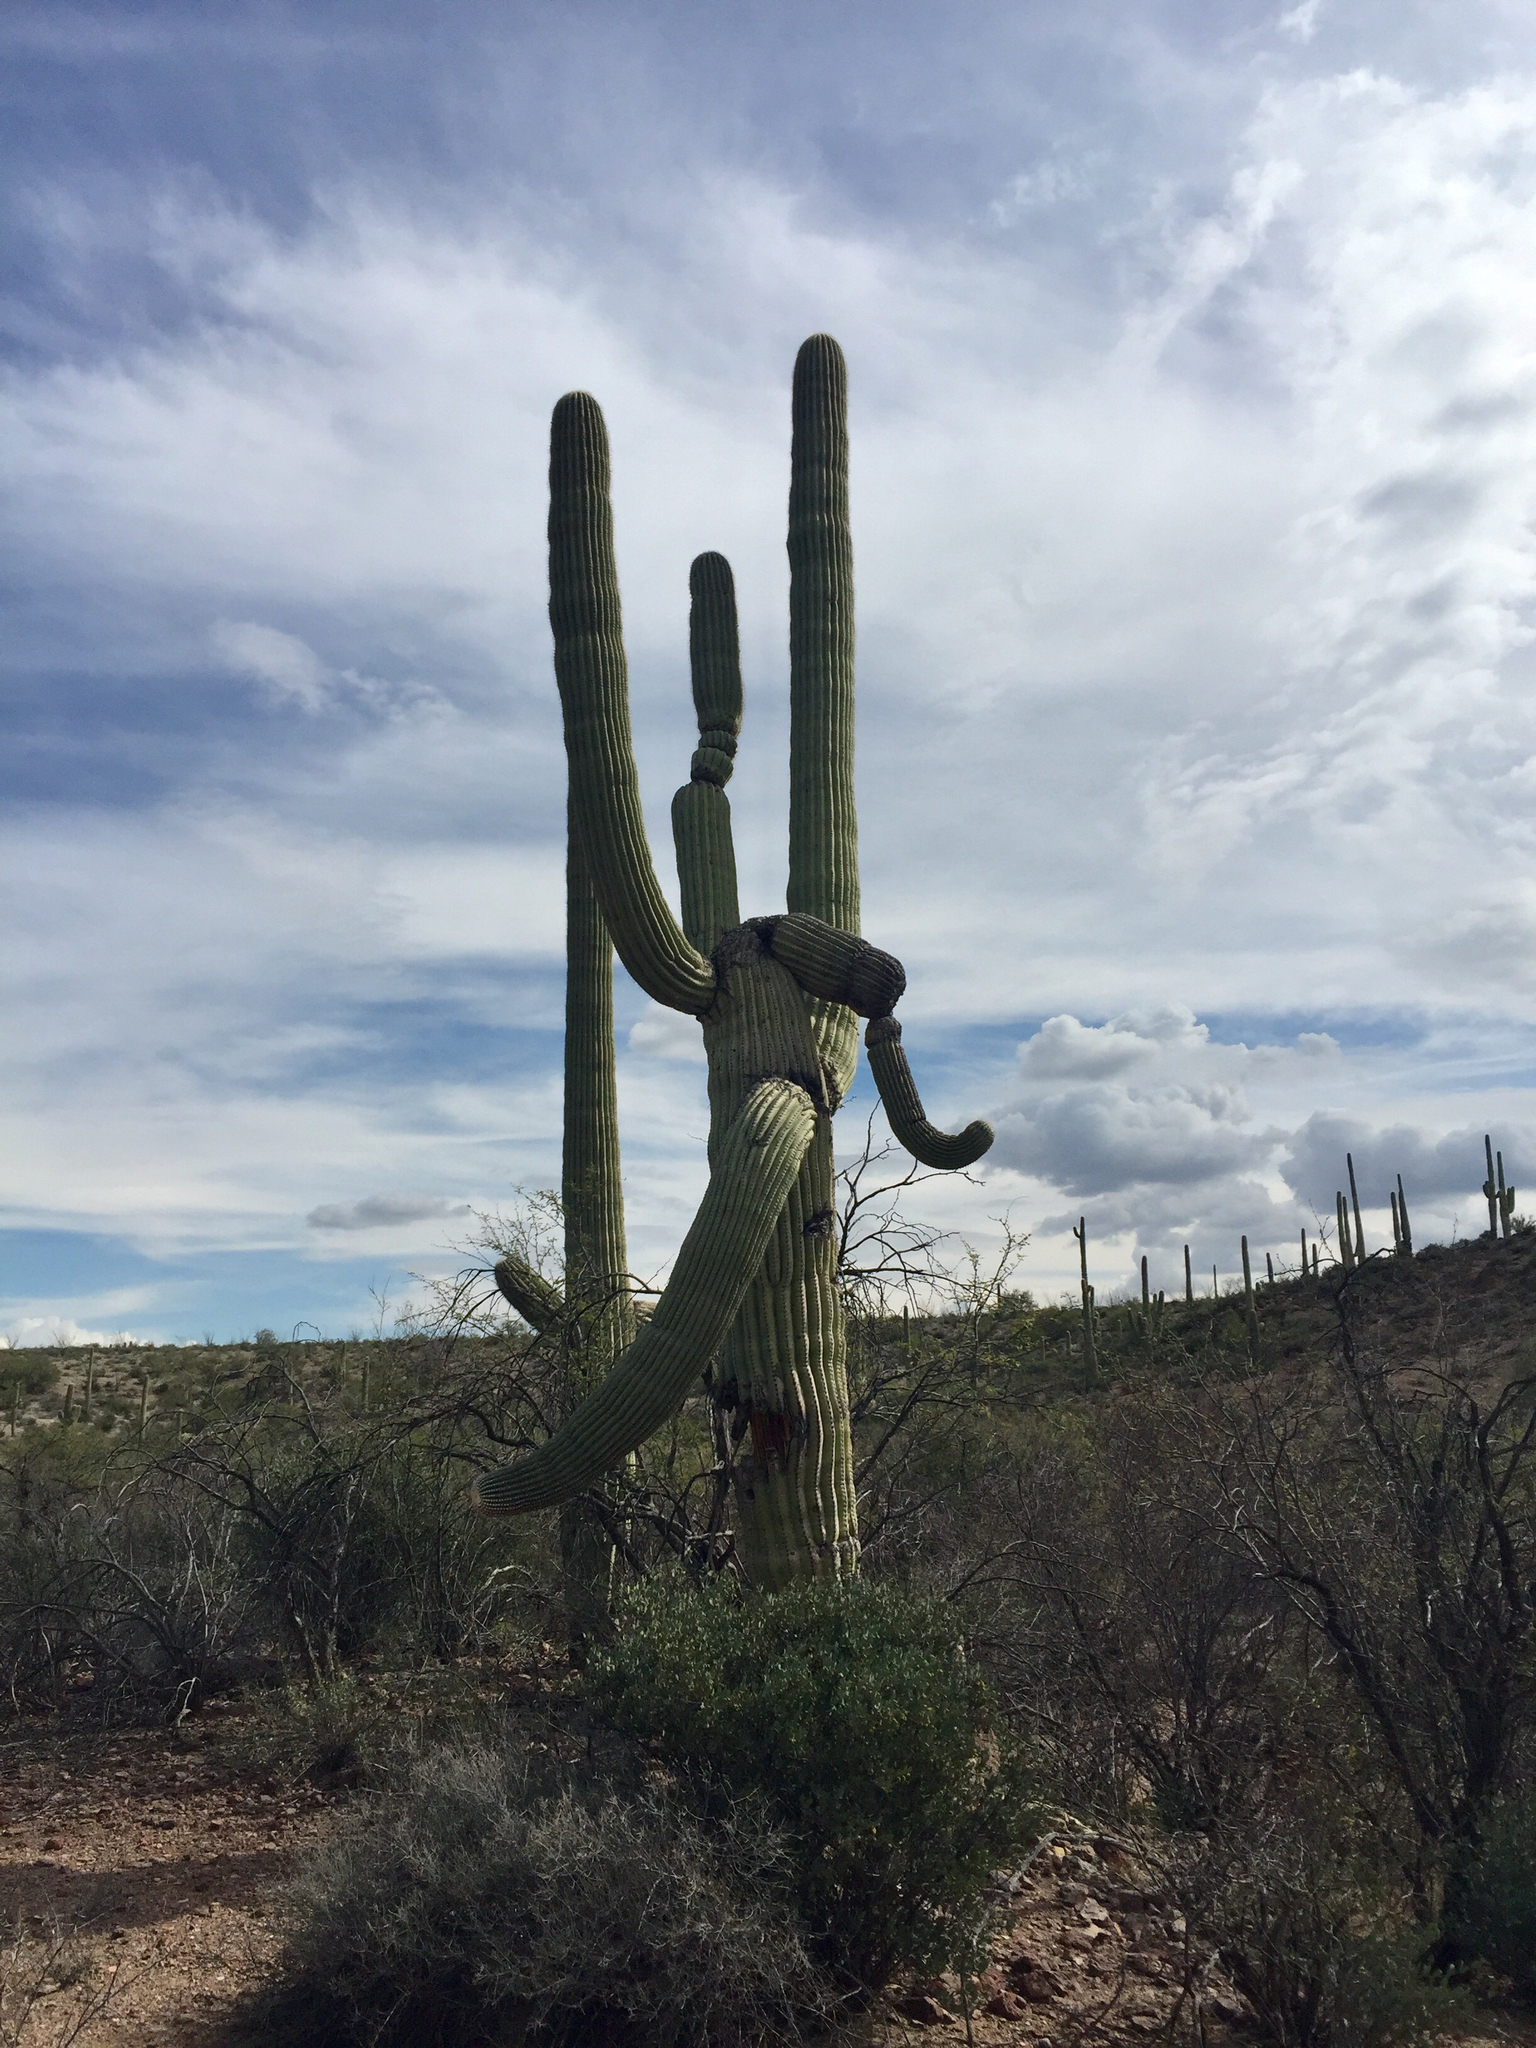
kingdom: Plantae
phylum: Tracheophyta
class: Magnoliopsida
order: Caryophyllales
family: Cactaceae
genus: Carnegiea
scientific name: Carnegiea gigantea
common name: Saguaro
